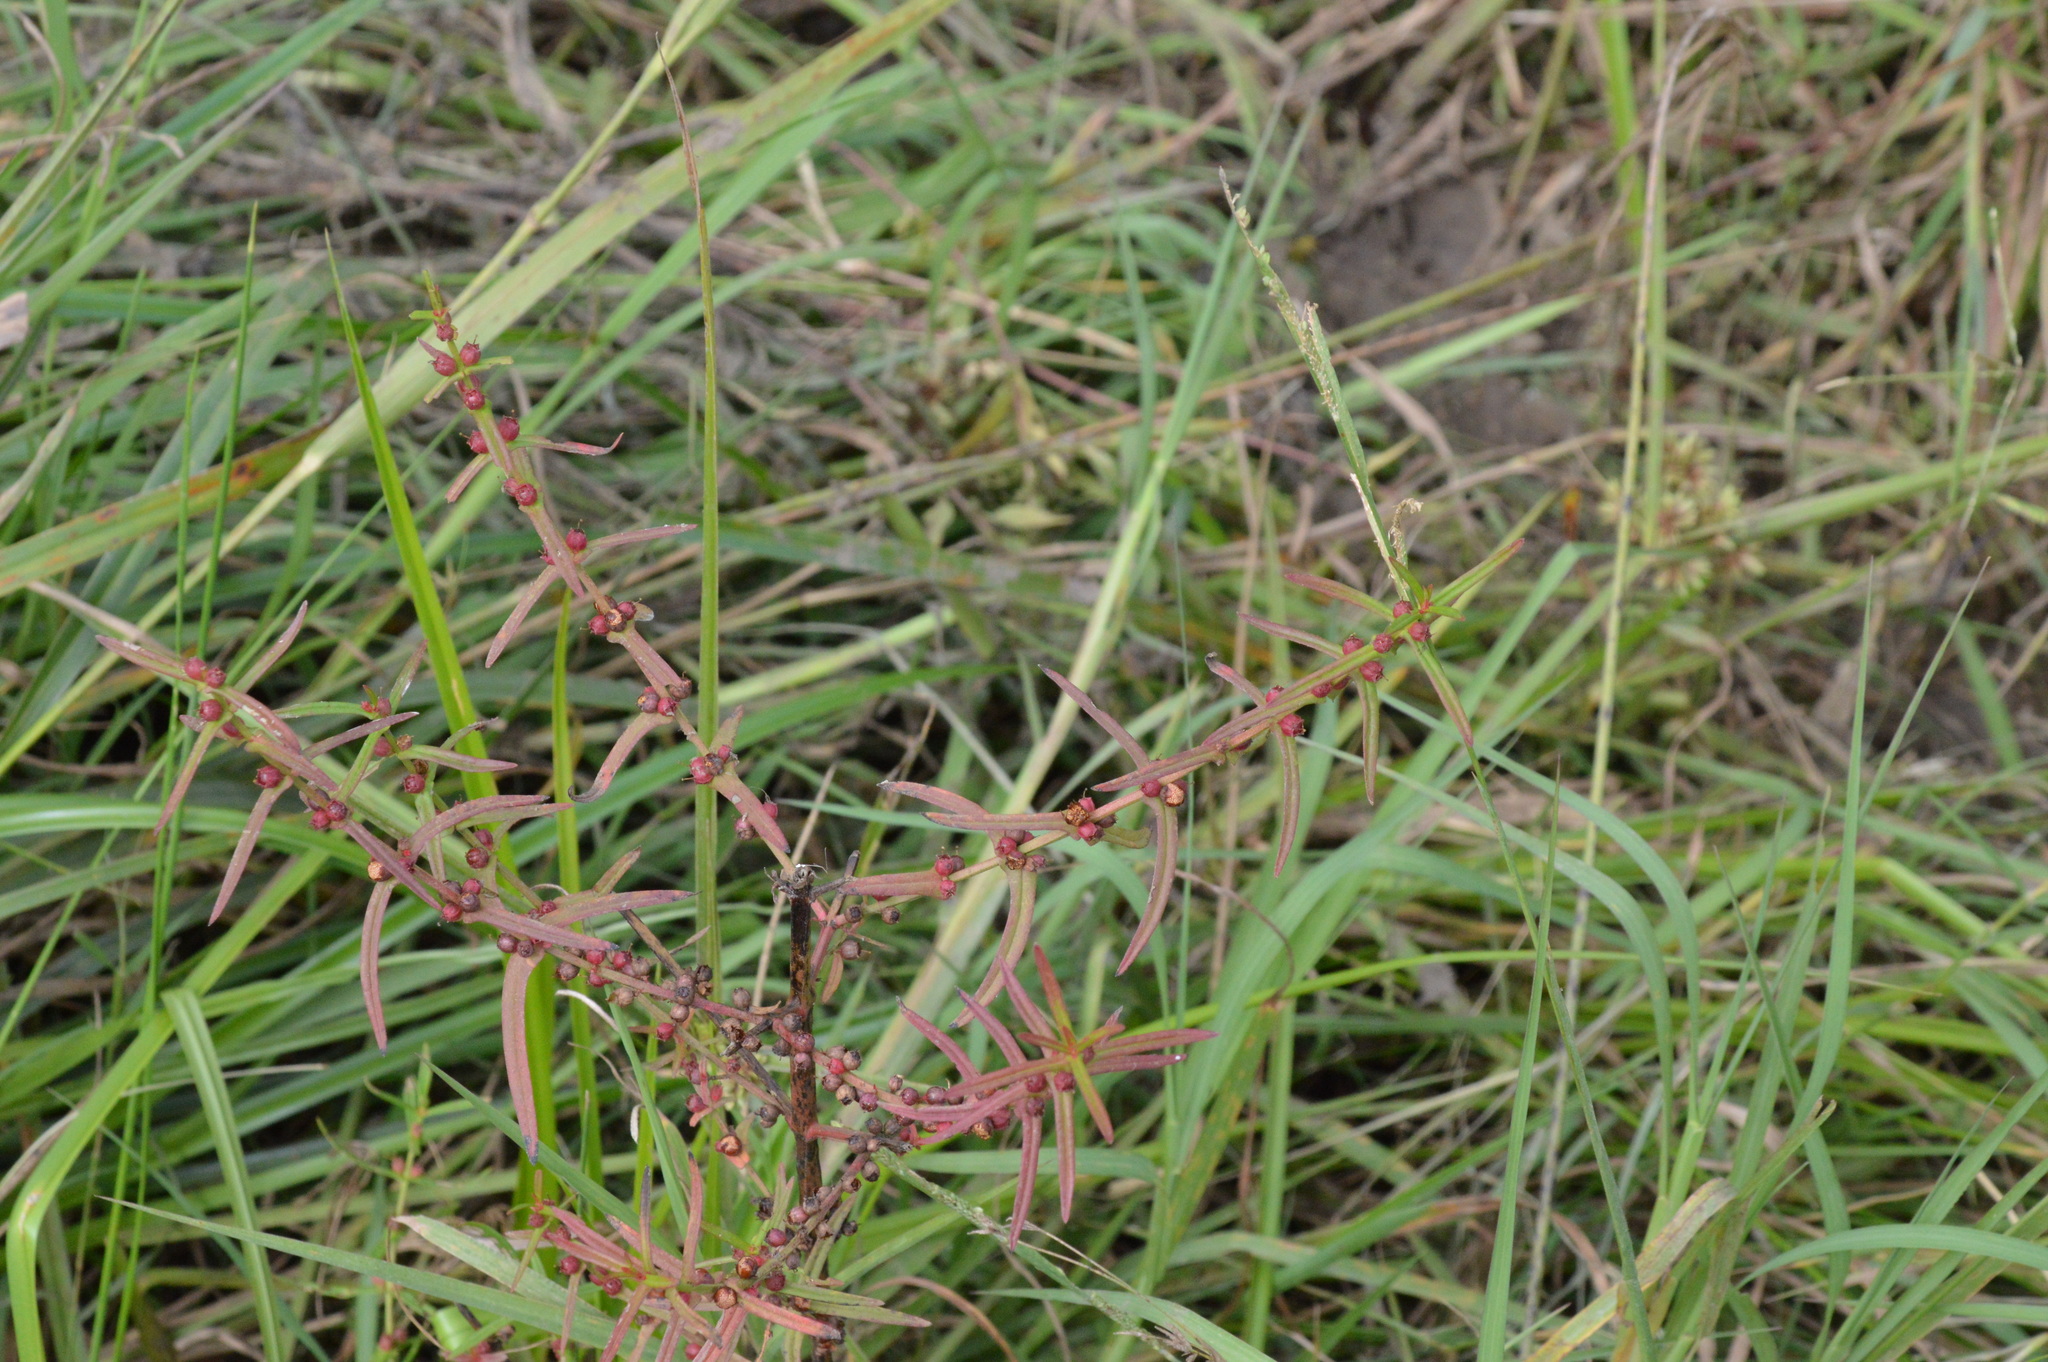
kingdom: Plantae
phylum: Tracheophyta
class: Magnoliopsida
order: Myrtales
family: Lythraceae
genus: Ammannia
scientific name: Ammannia coccinea
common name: Valley redstem
